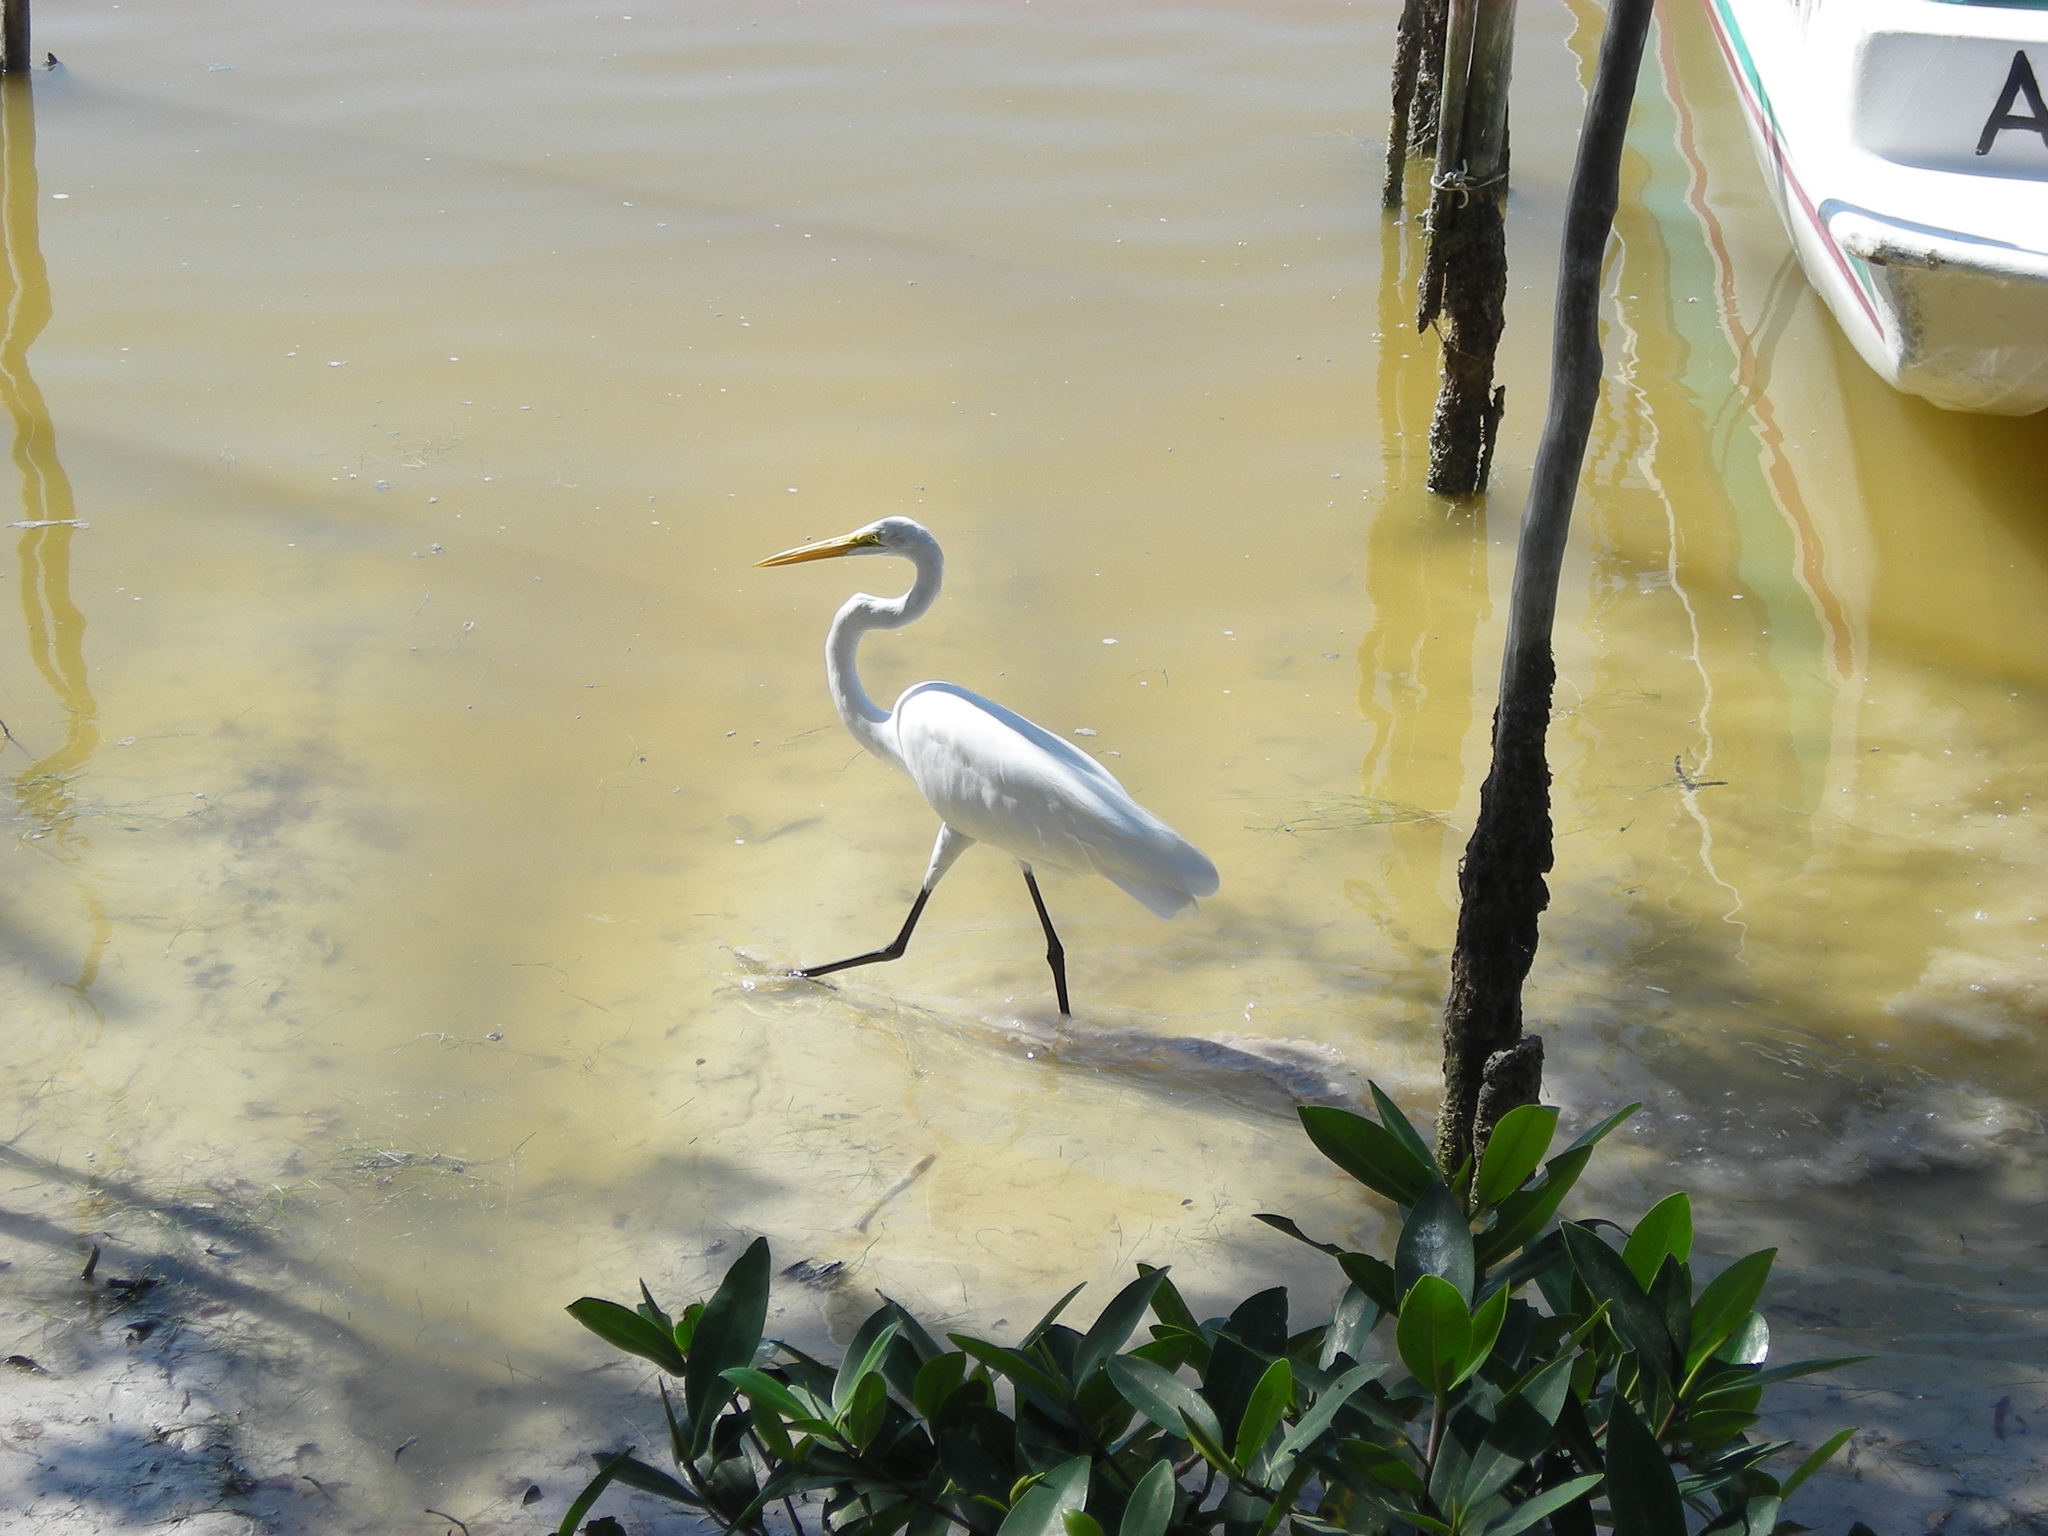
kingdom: Animalia
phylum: Chordata
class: Aves
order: Pelecaniformes
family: Ardeidae
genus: Ardea
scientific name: Ardea alba
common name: Great egret
